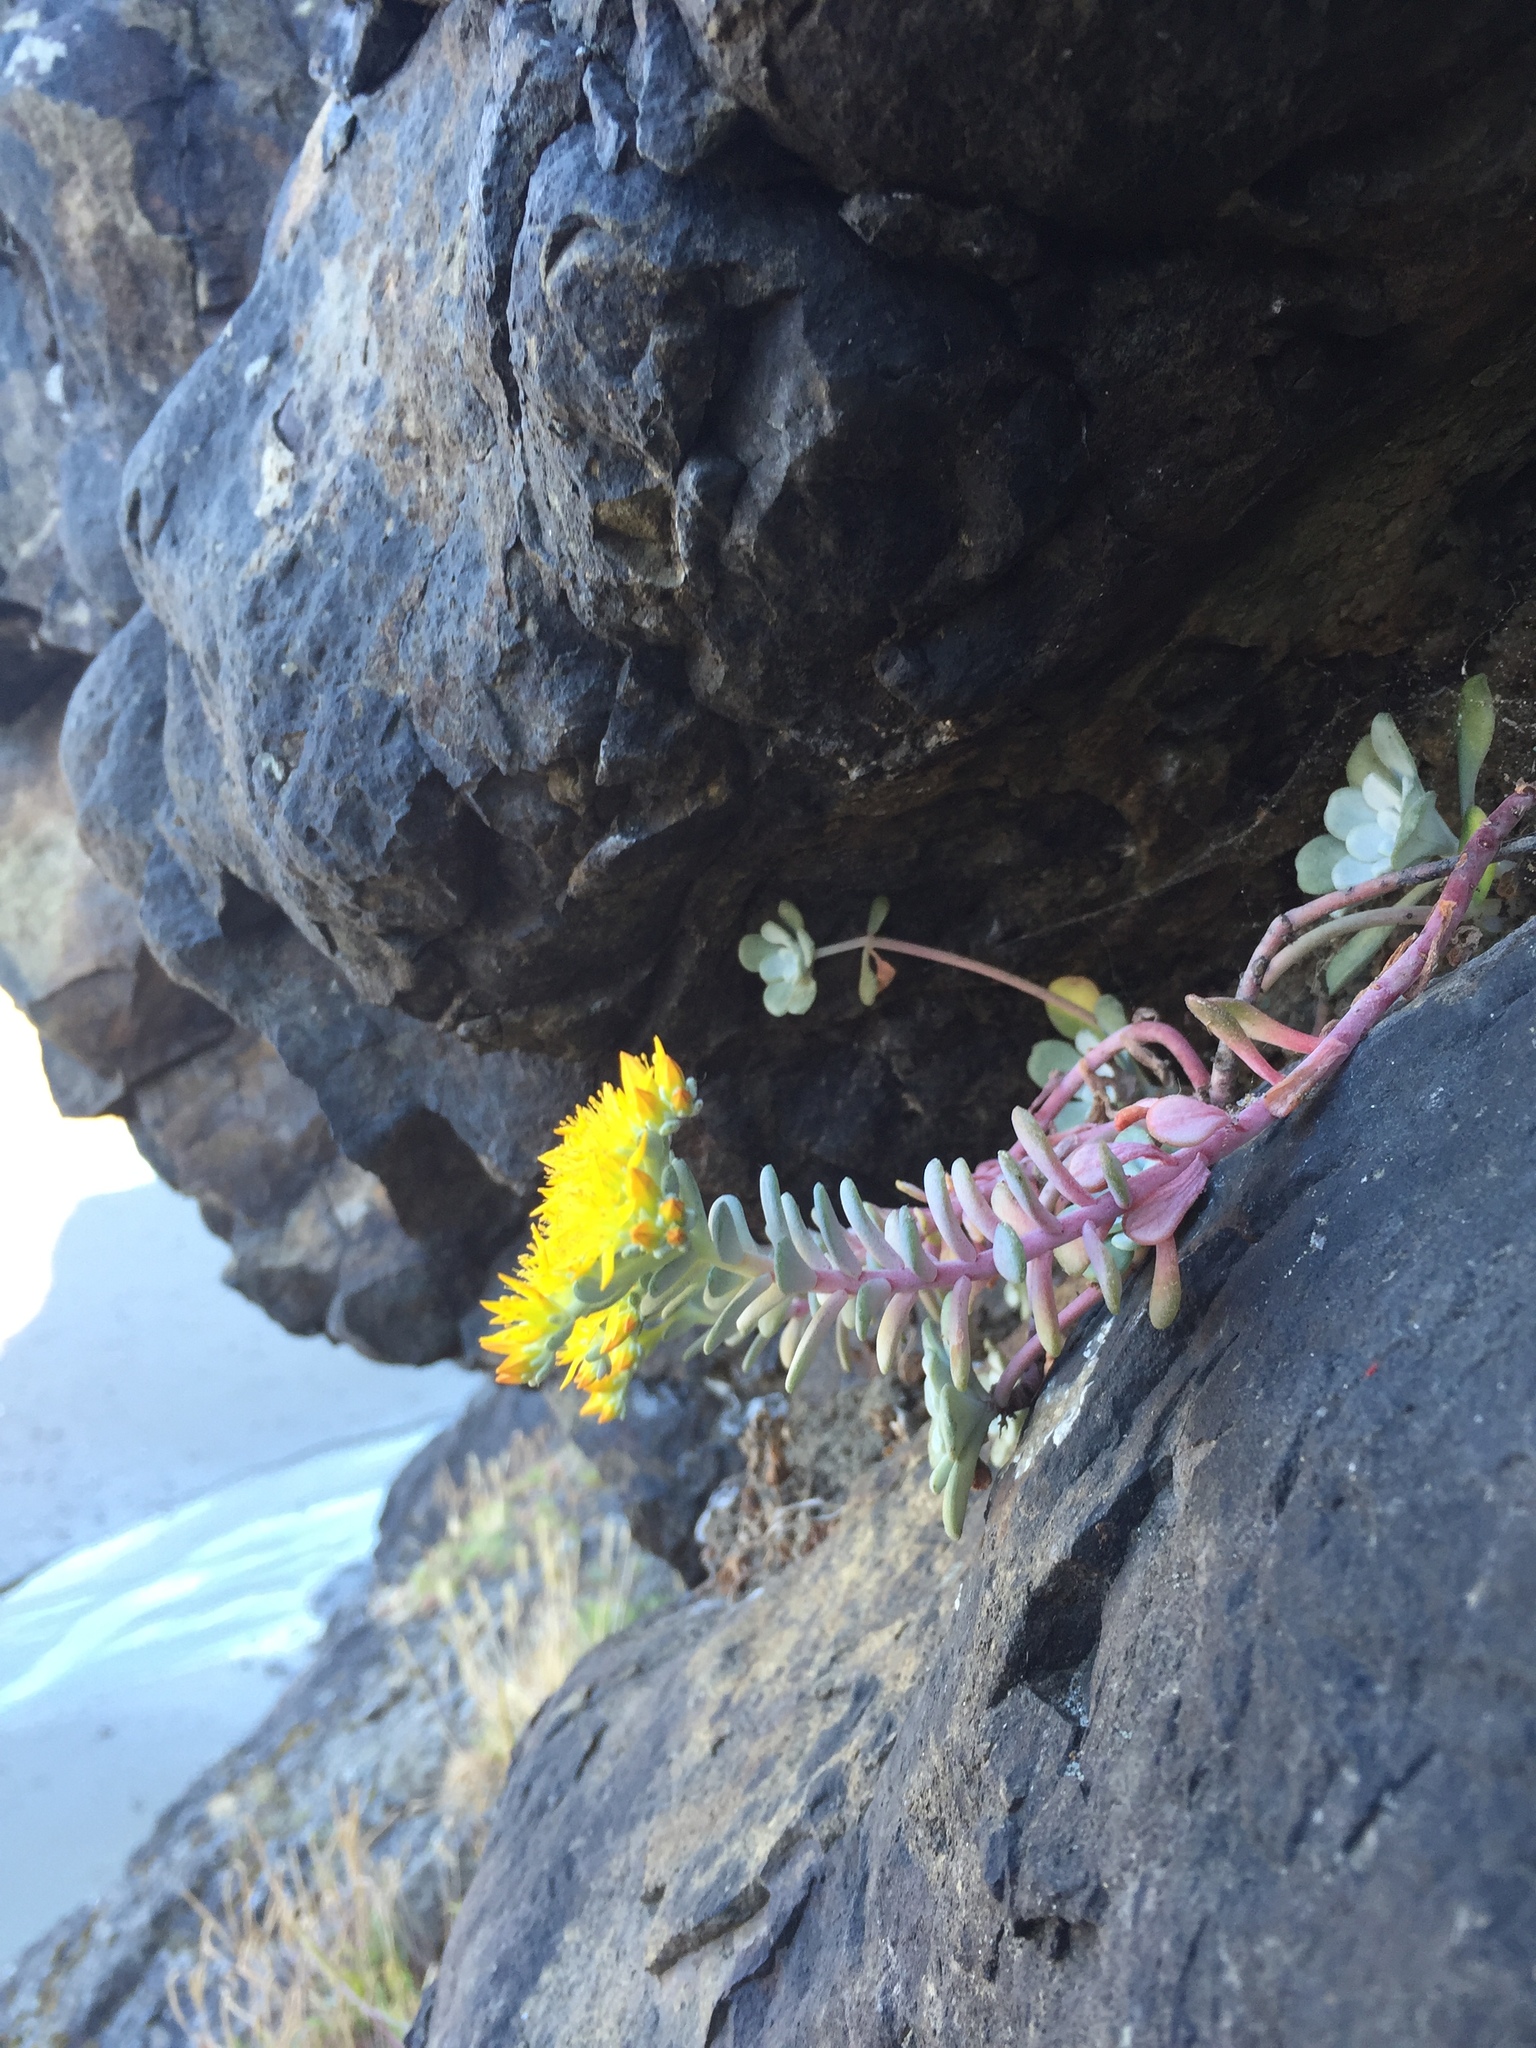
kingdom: Plantae
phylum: Tracheophyta
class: Magnoliopsida
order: Saxifragales
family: Crassulaceae
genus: Sedum
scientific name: Sedum spathulifolium
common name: Colorado stonecrop
